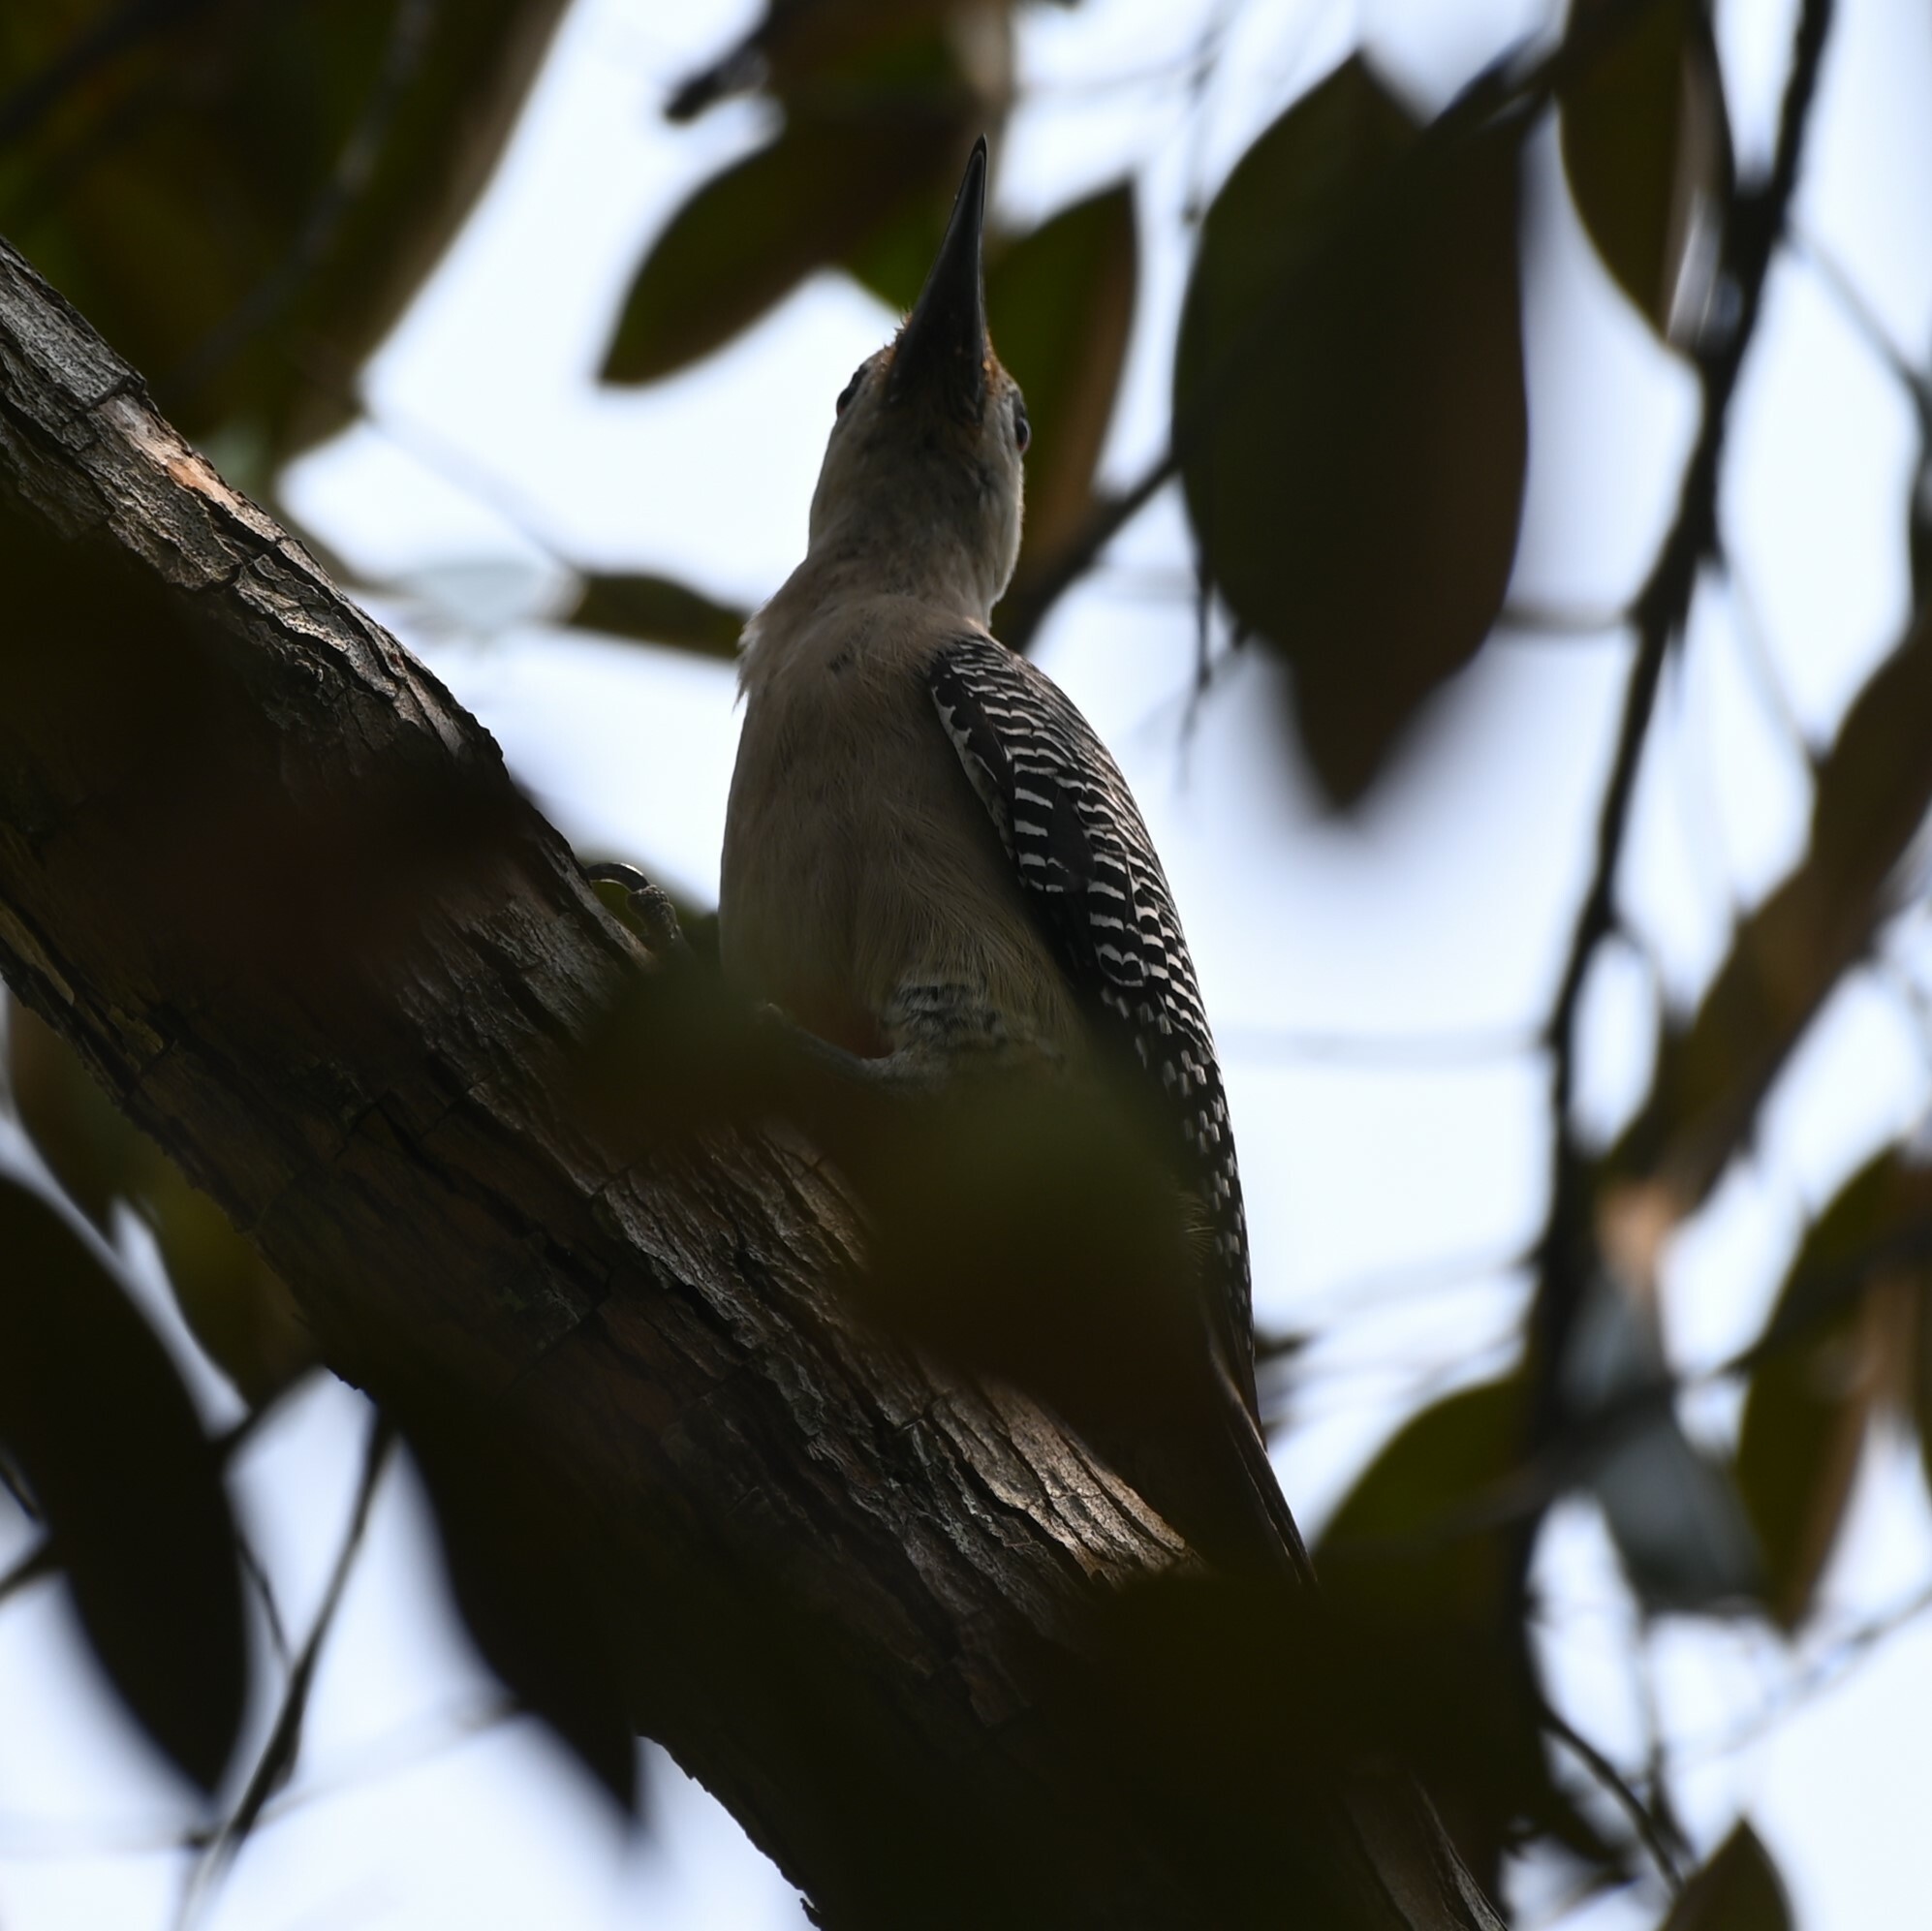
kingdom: Animalia
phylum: Chordata
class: Aves
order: Piciformes
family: Picidae
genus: Melanerpes
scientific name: Melanerpes aurifrons
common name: Golden-fronted woodpecker
